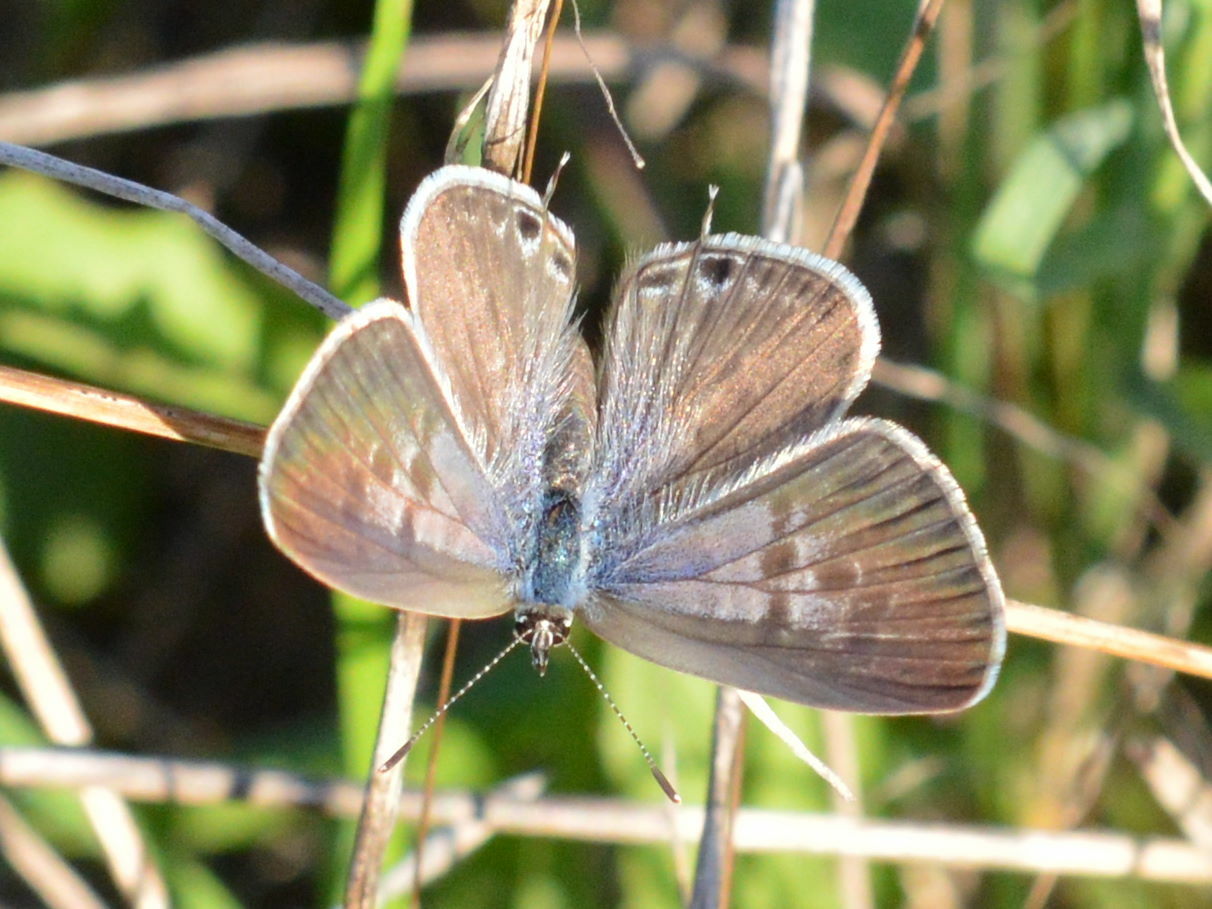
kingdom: Animalia
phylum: Arthropoda
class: Insecta
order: Lepidoptera
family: Lycaenidae
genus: Leptotes
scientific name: Leptotes pirithous
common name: Lang's short-tailed blue
